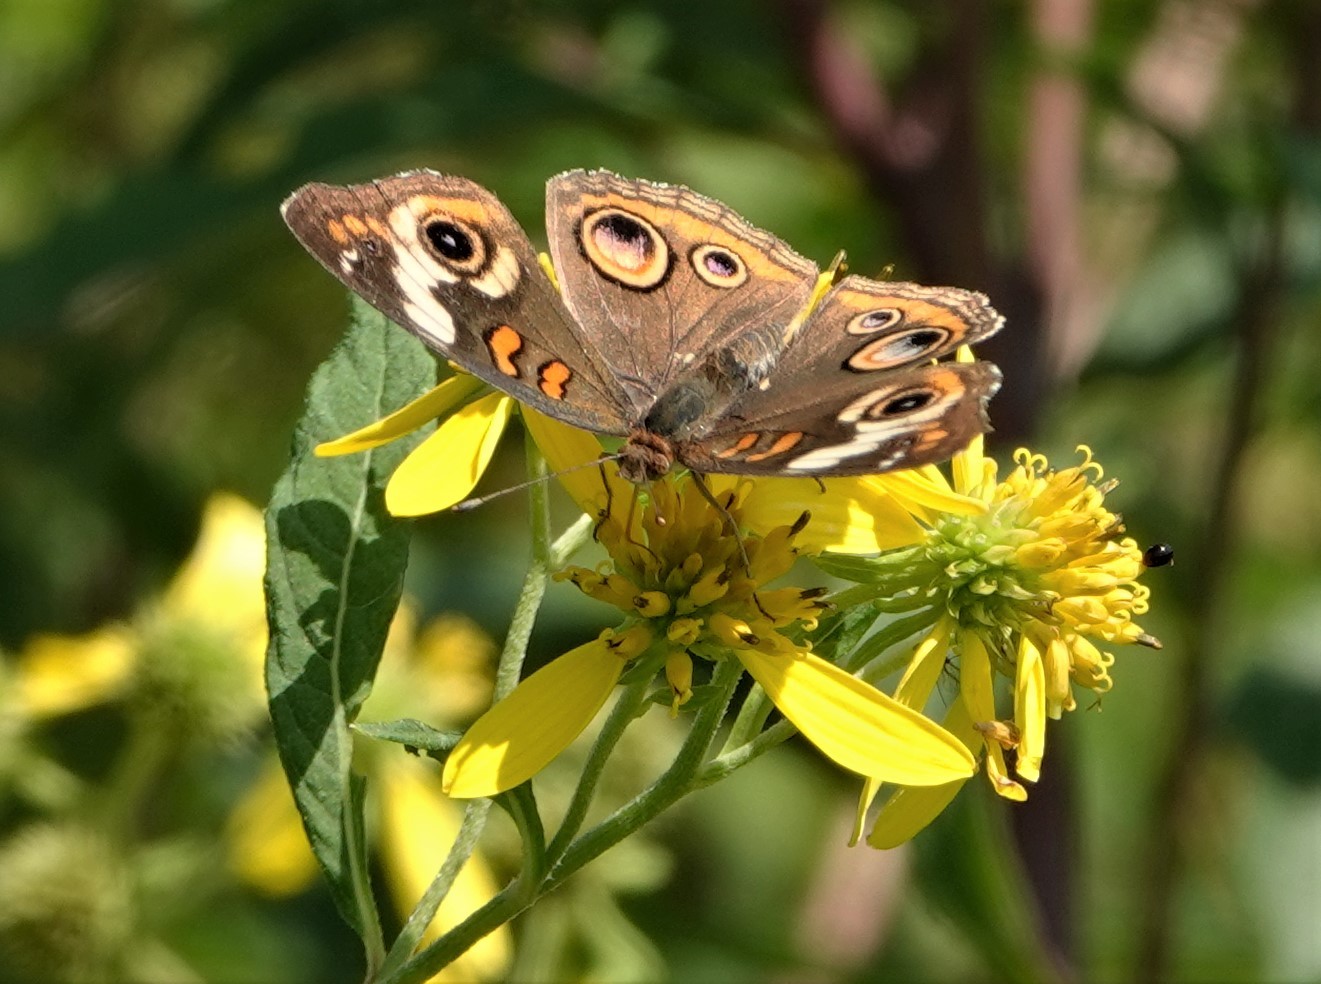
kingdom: Animalia
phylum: Arthropoda
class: Insecta
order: Lepidoptera
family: Nymphalidae
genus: Junonia
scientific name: Junonia coenia
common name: Common buckeye
